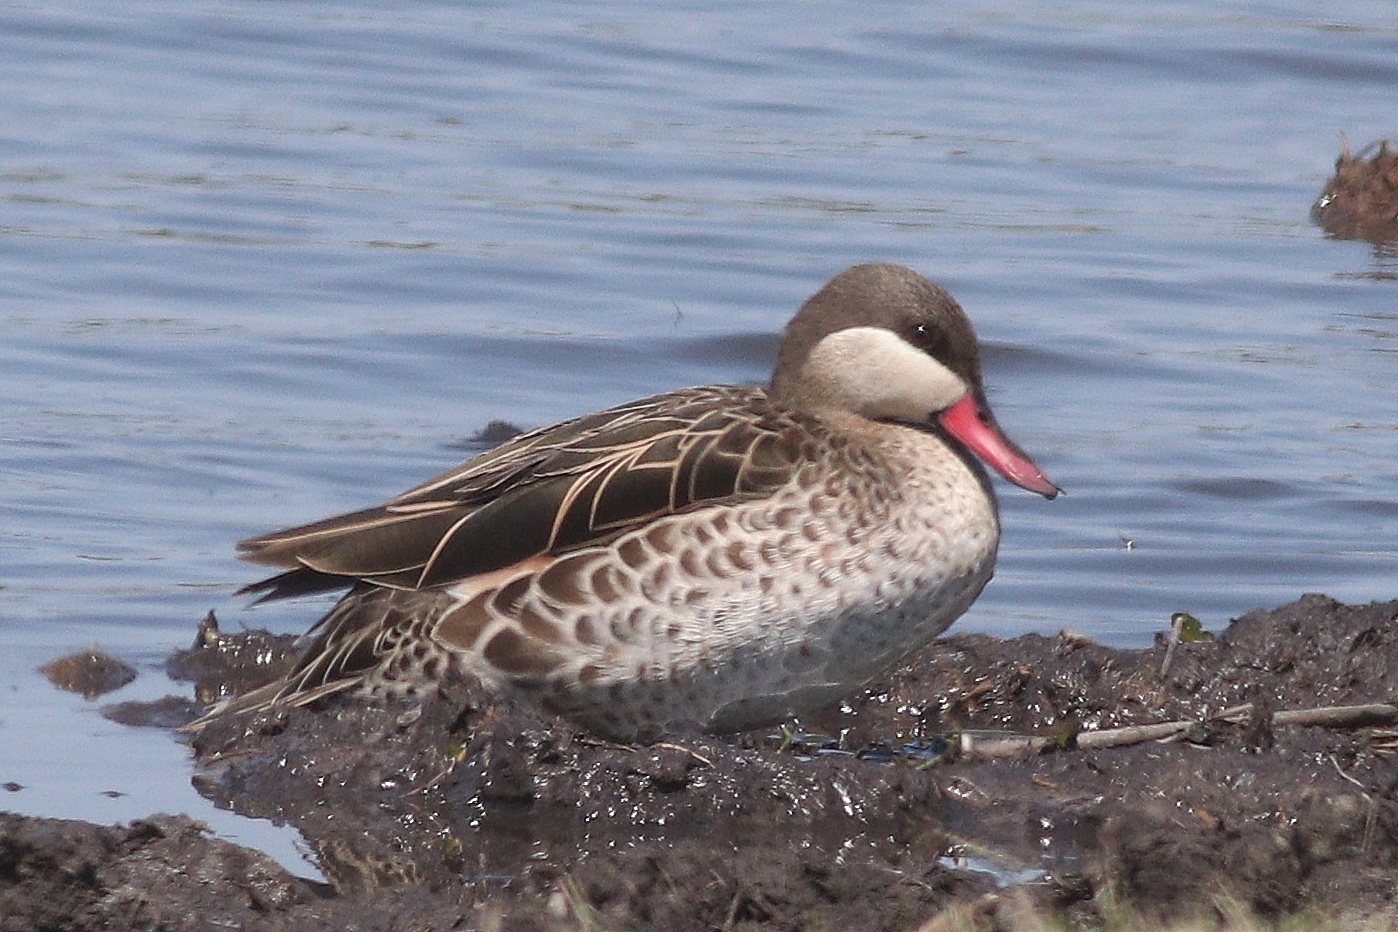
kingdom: Animalia
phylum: Chordata
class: Aves
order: Anseriformes
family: Anatidae
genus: Anas
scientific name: Anas erythrorhyncha
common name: Red-billed teal
